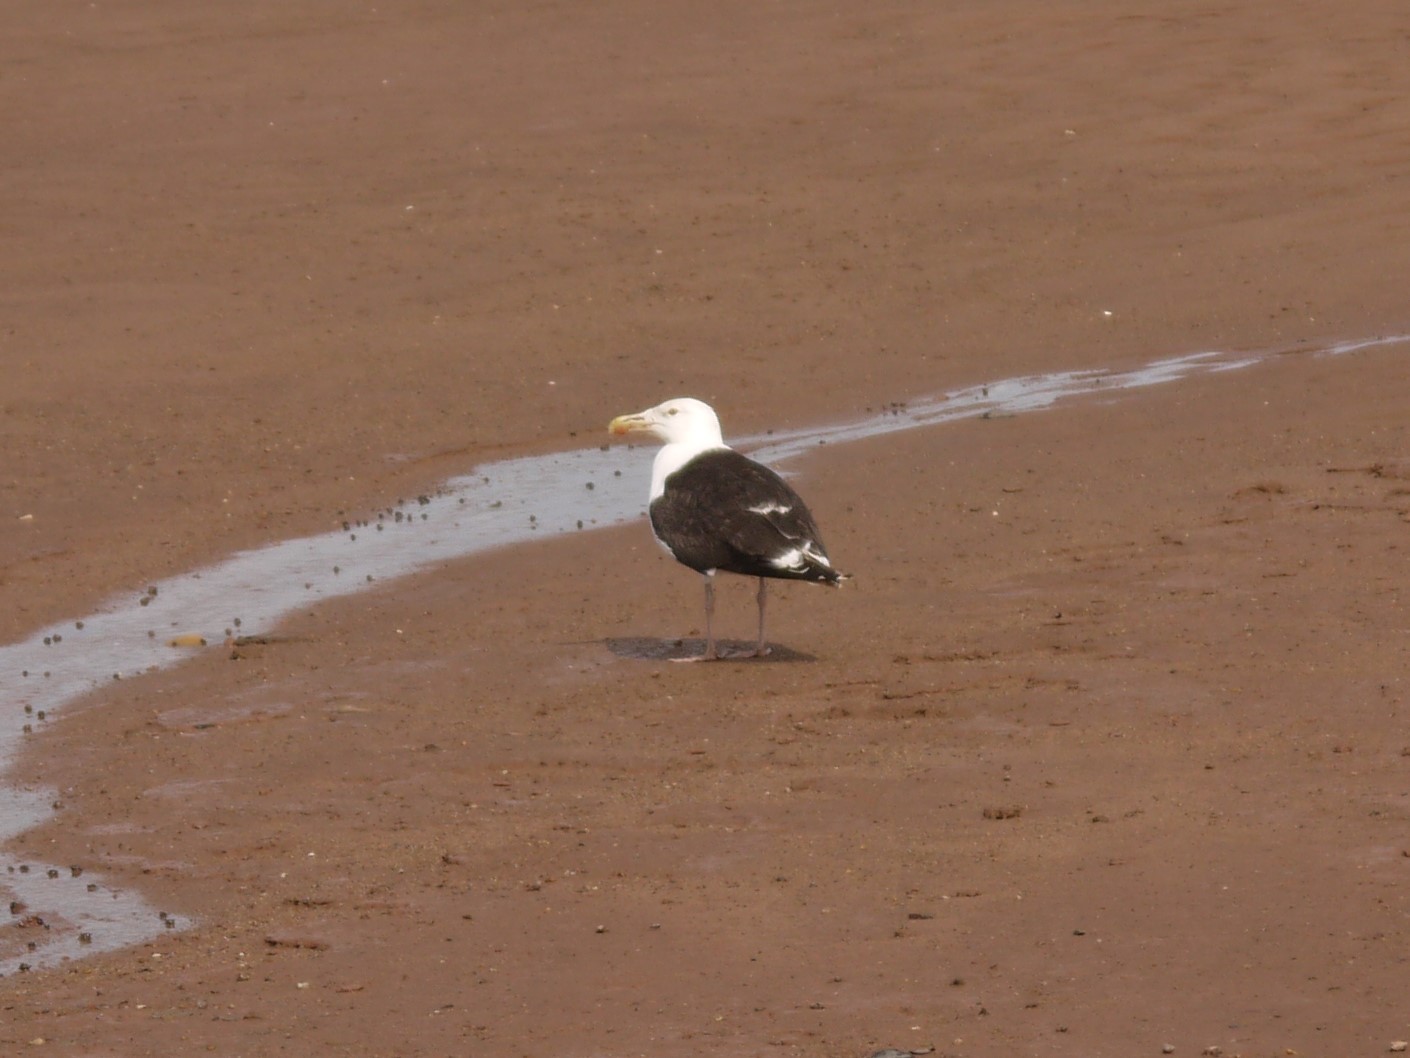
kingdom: Animalia
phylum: Chordata
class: Aves
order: Charadriiformes
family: Laridae
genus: Larus
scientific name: Larus marinus
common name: Great black-backed gull
